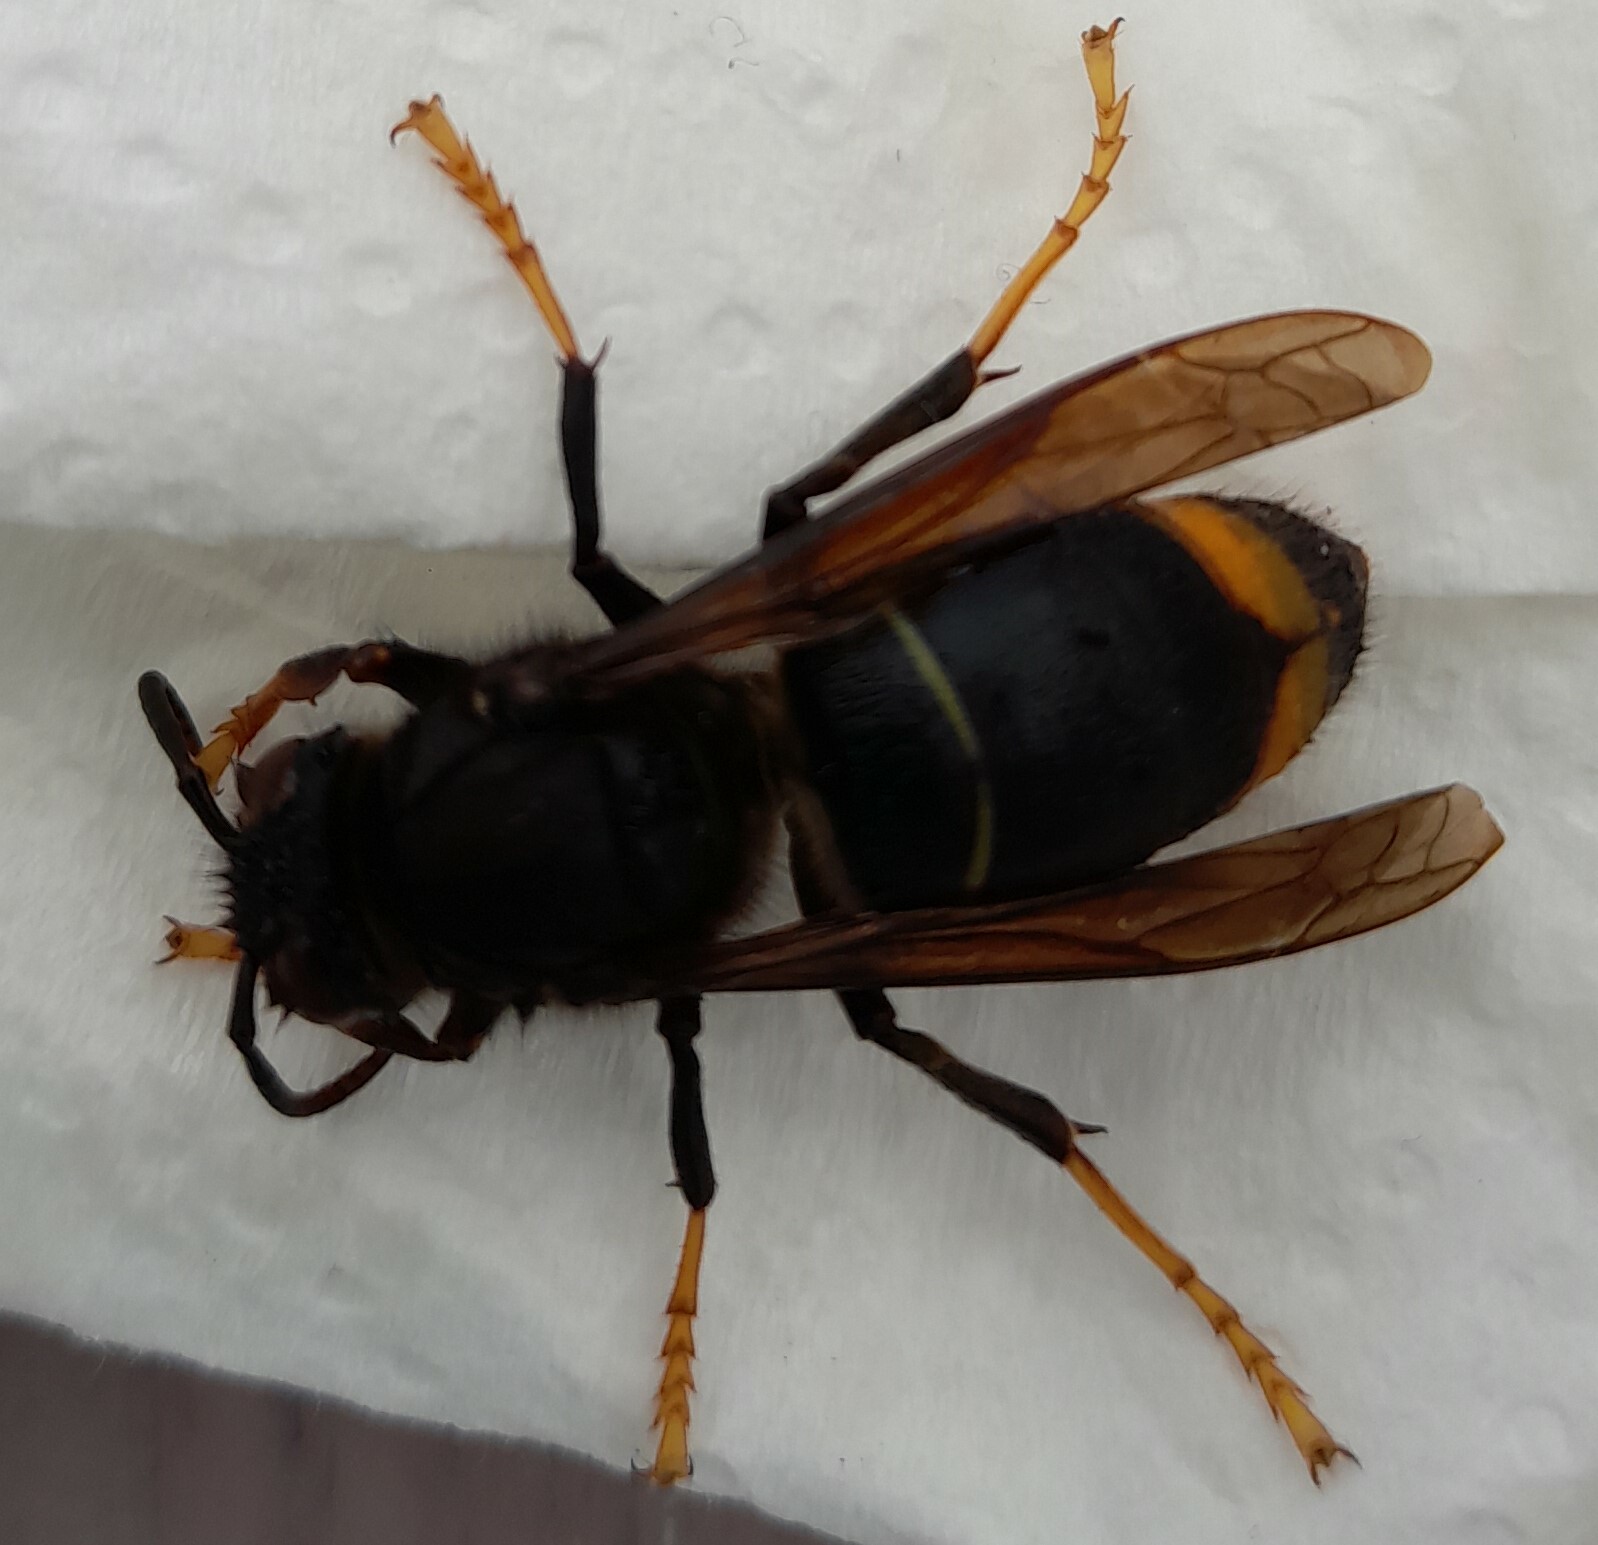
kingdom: Animalia
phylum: Arthropoda
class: Insecta
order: Hymenoptera
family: Vespidae
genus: Vespa
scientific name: Vespa velutina
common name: Asian hornet
